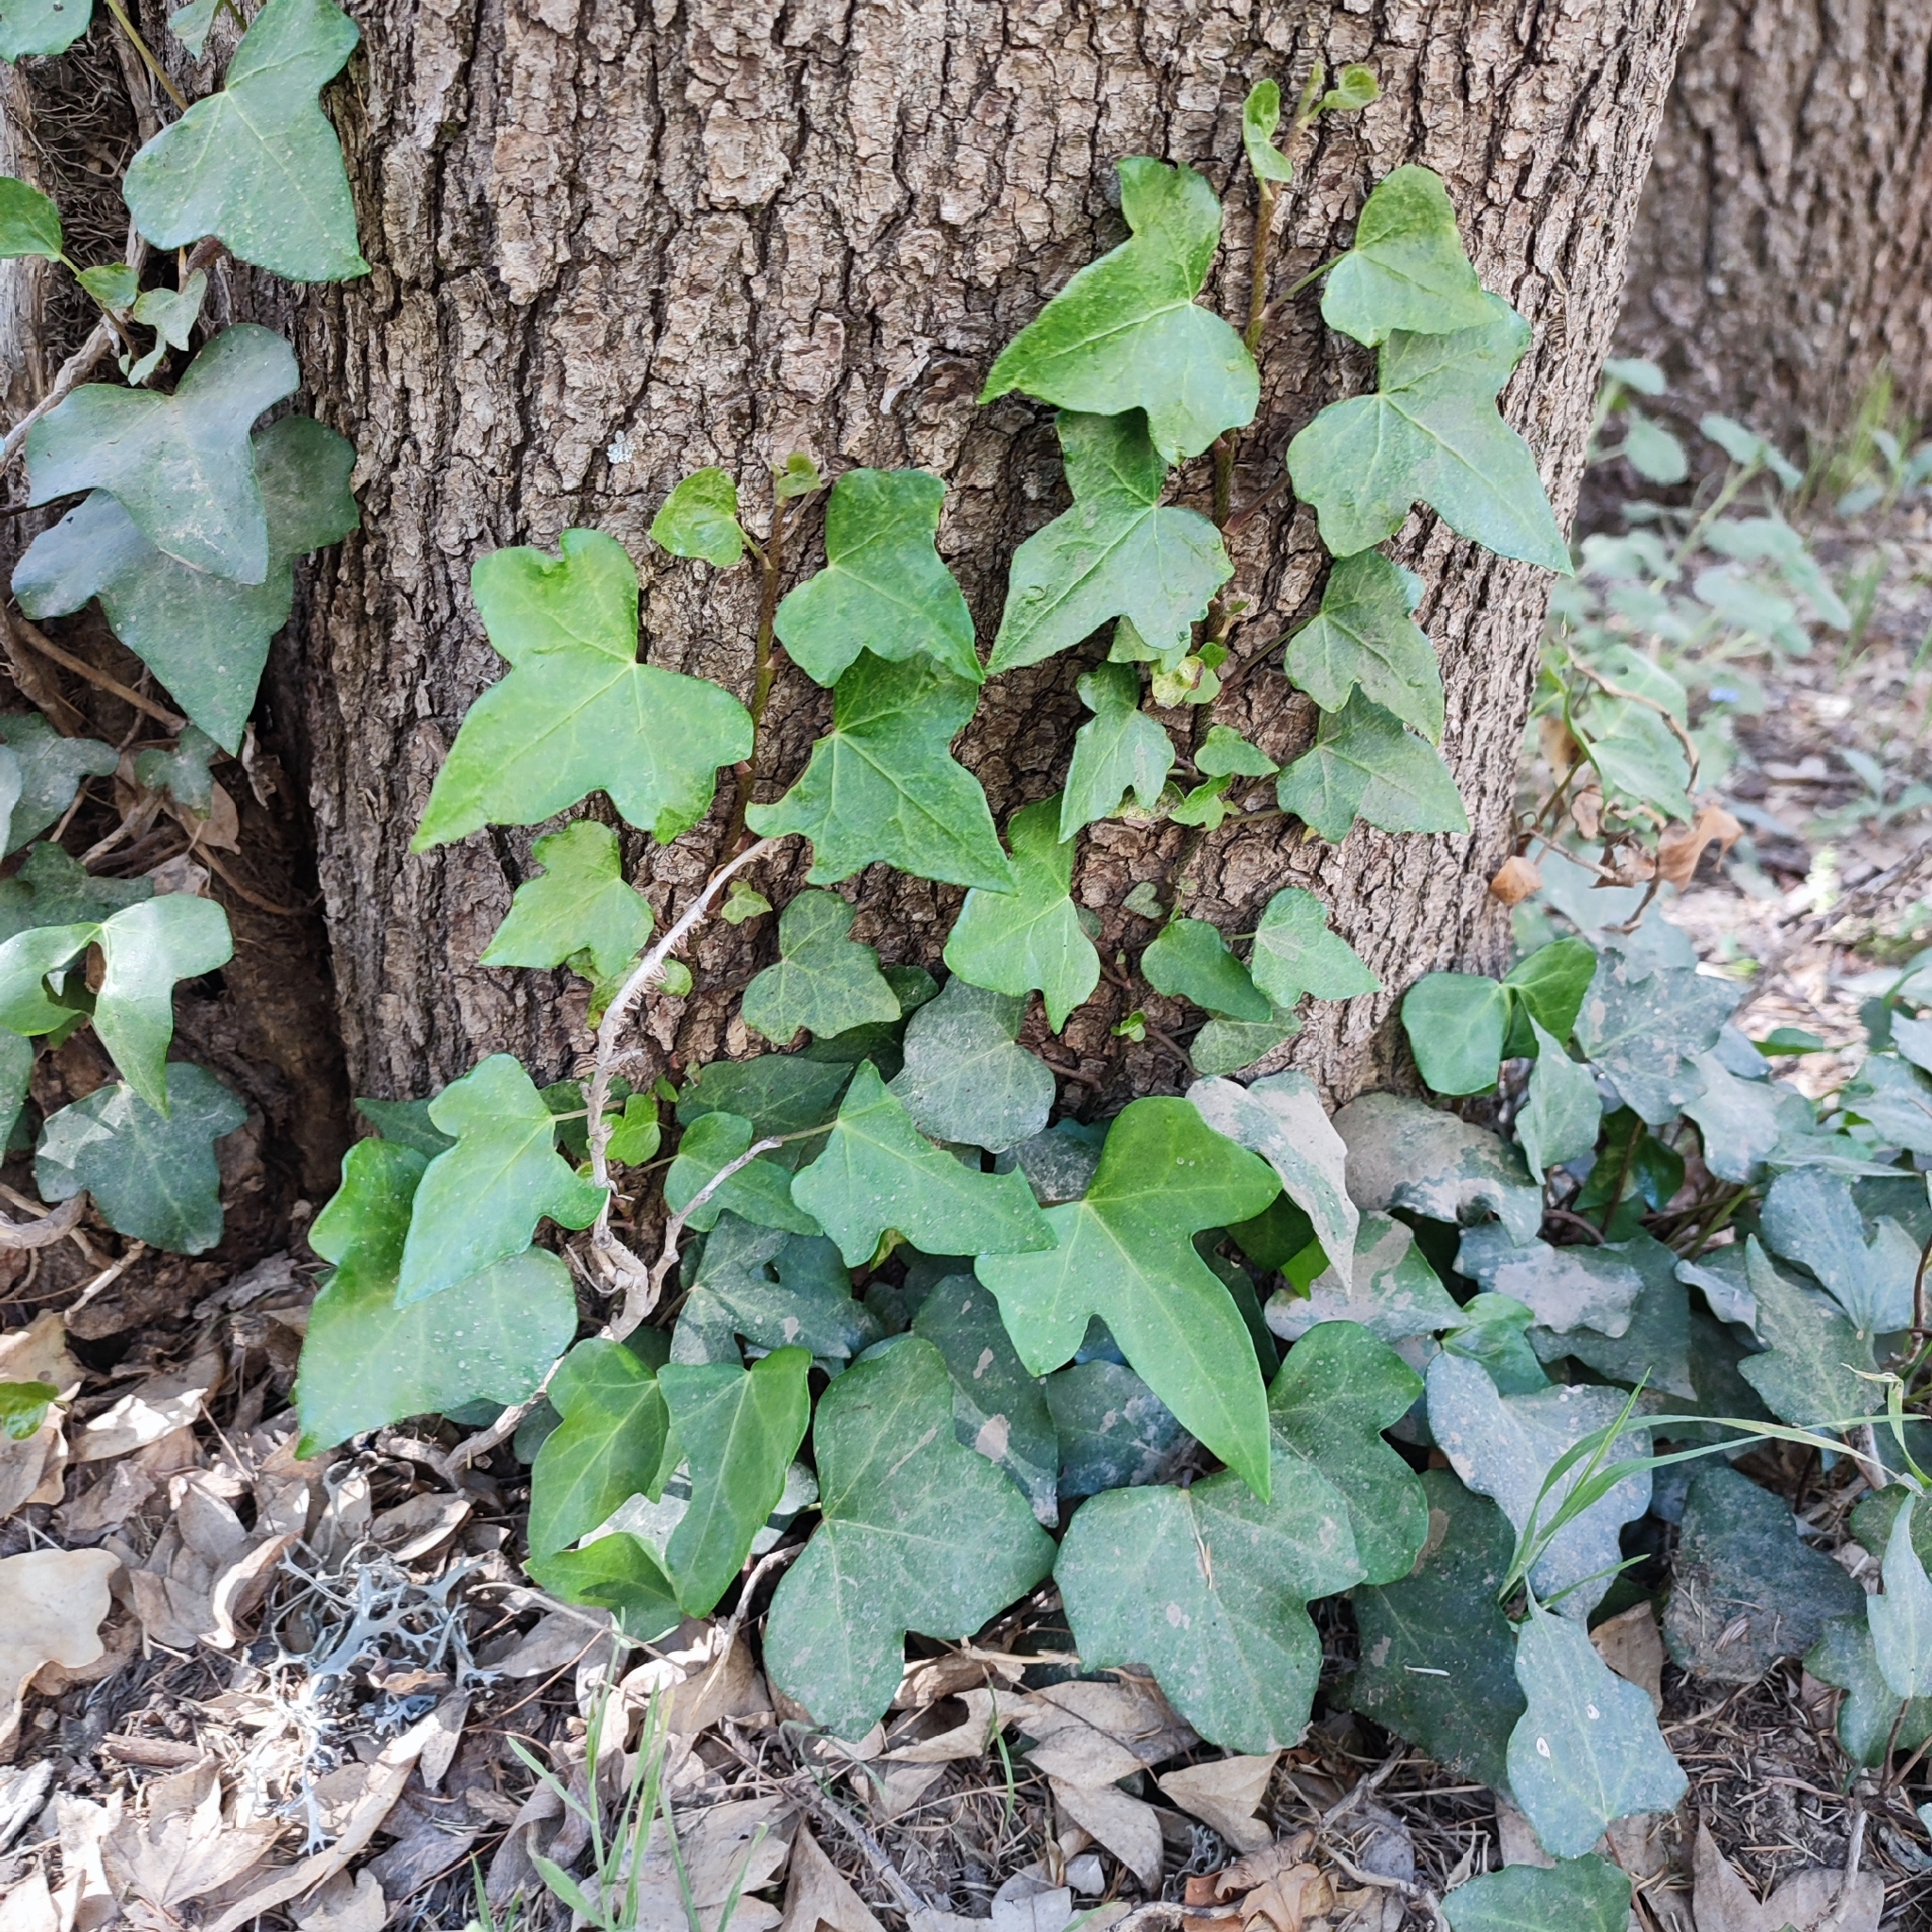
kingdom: Plantae
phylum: Tracheophyta
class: Magnoliopsida
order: Apiales
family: Araliaceae
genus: Hedera
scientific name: Hedera helix
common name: Ivy
